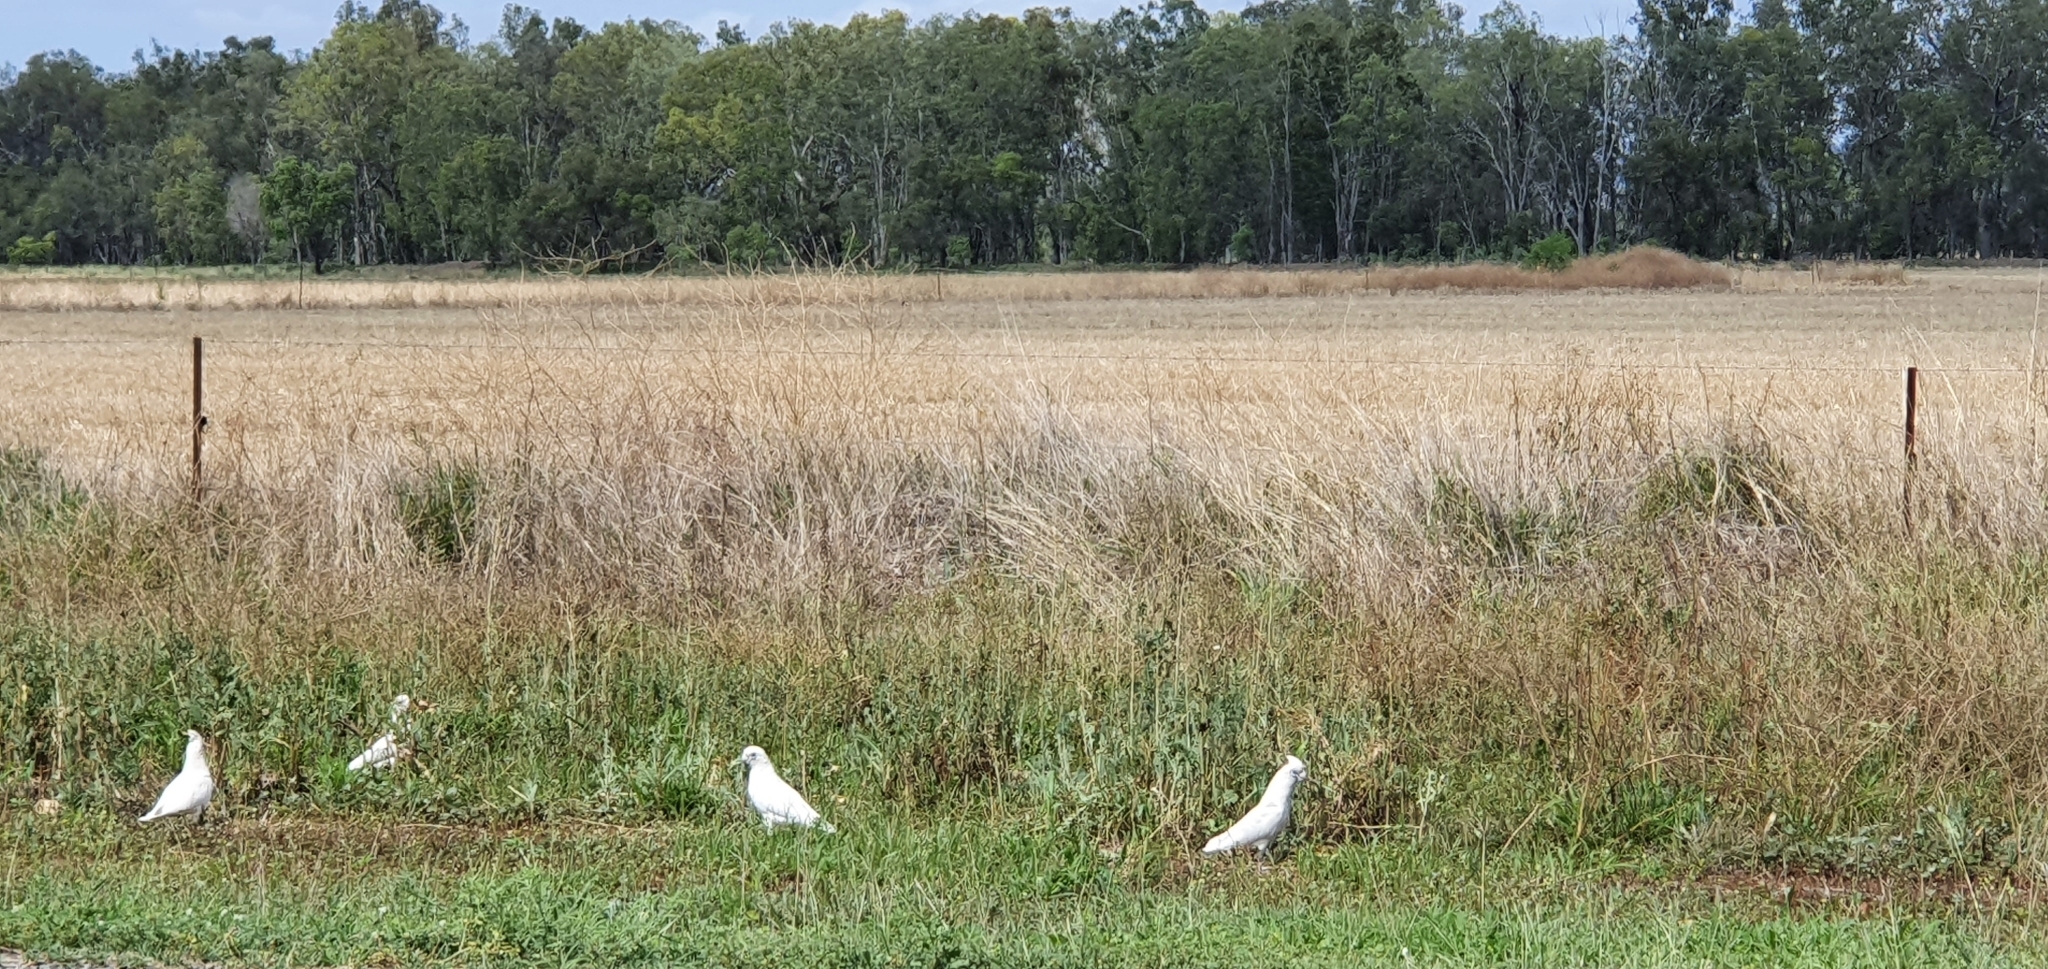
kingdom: Animalia
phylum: Chordata
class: Aves
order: Psittaciformes
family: Psittacidae
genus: Cacatua
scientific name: Cacatua sanguinea
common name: Little corella
